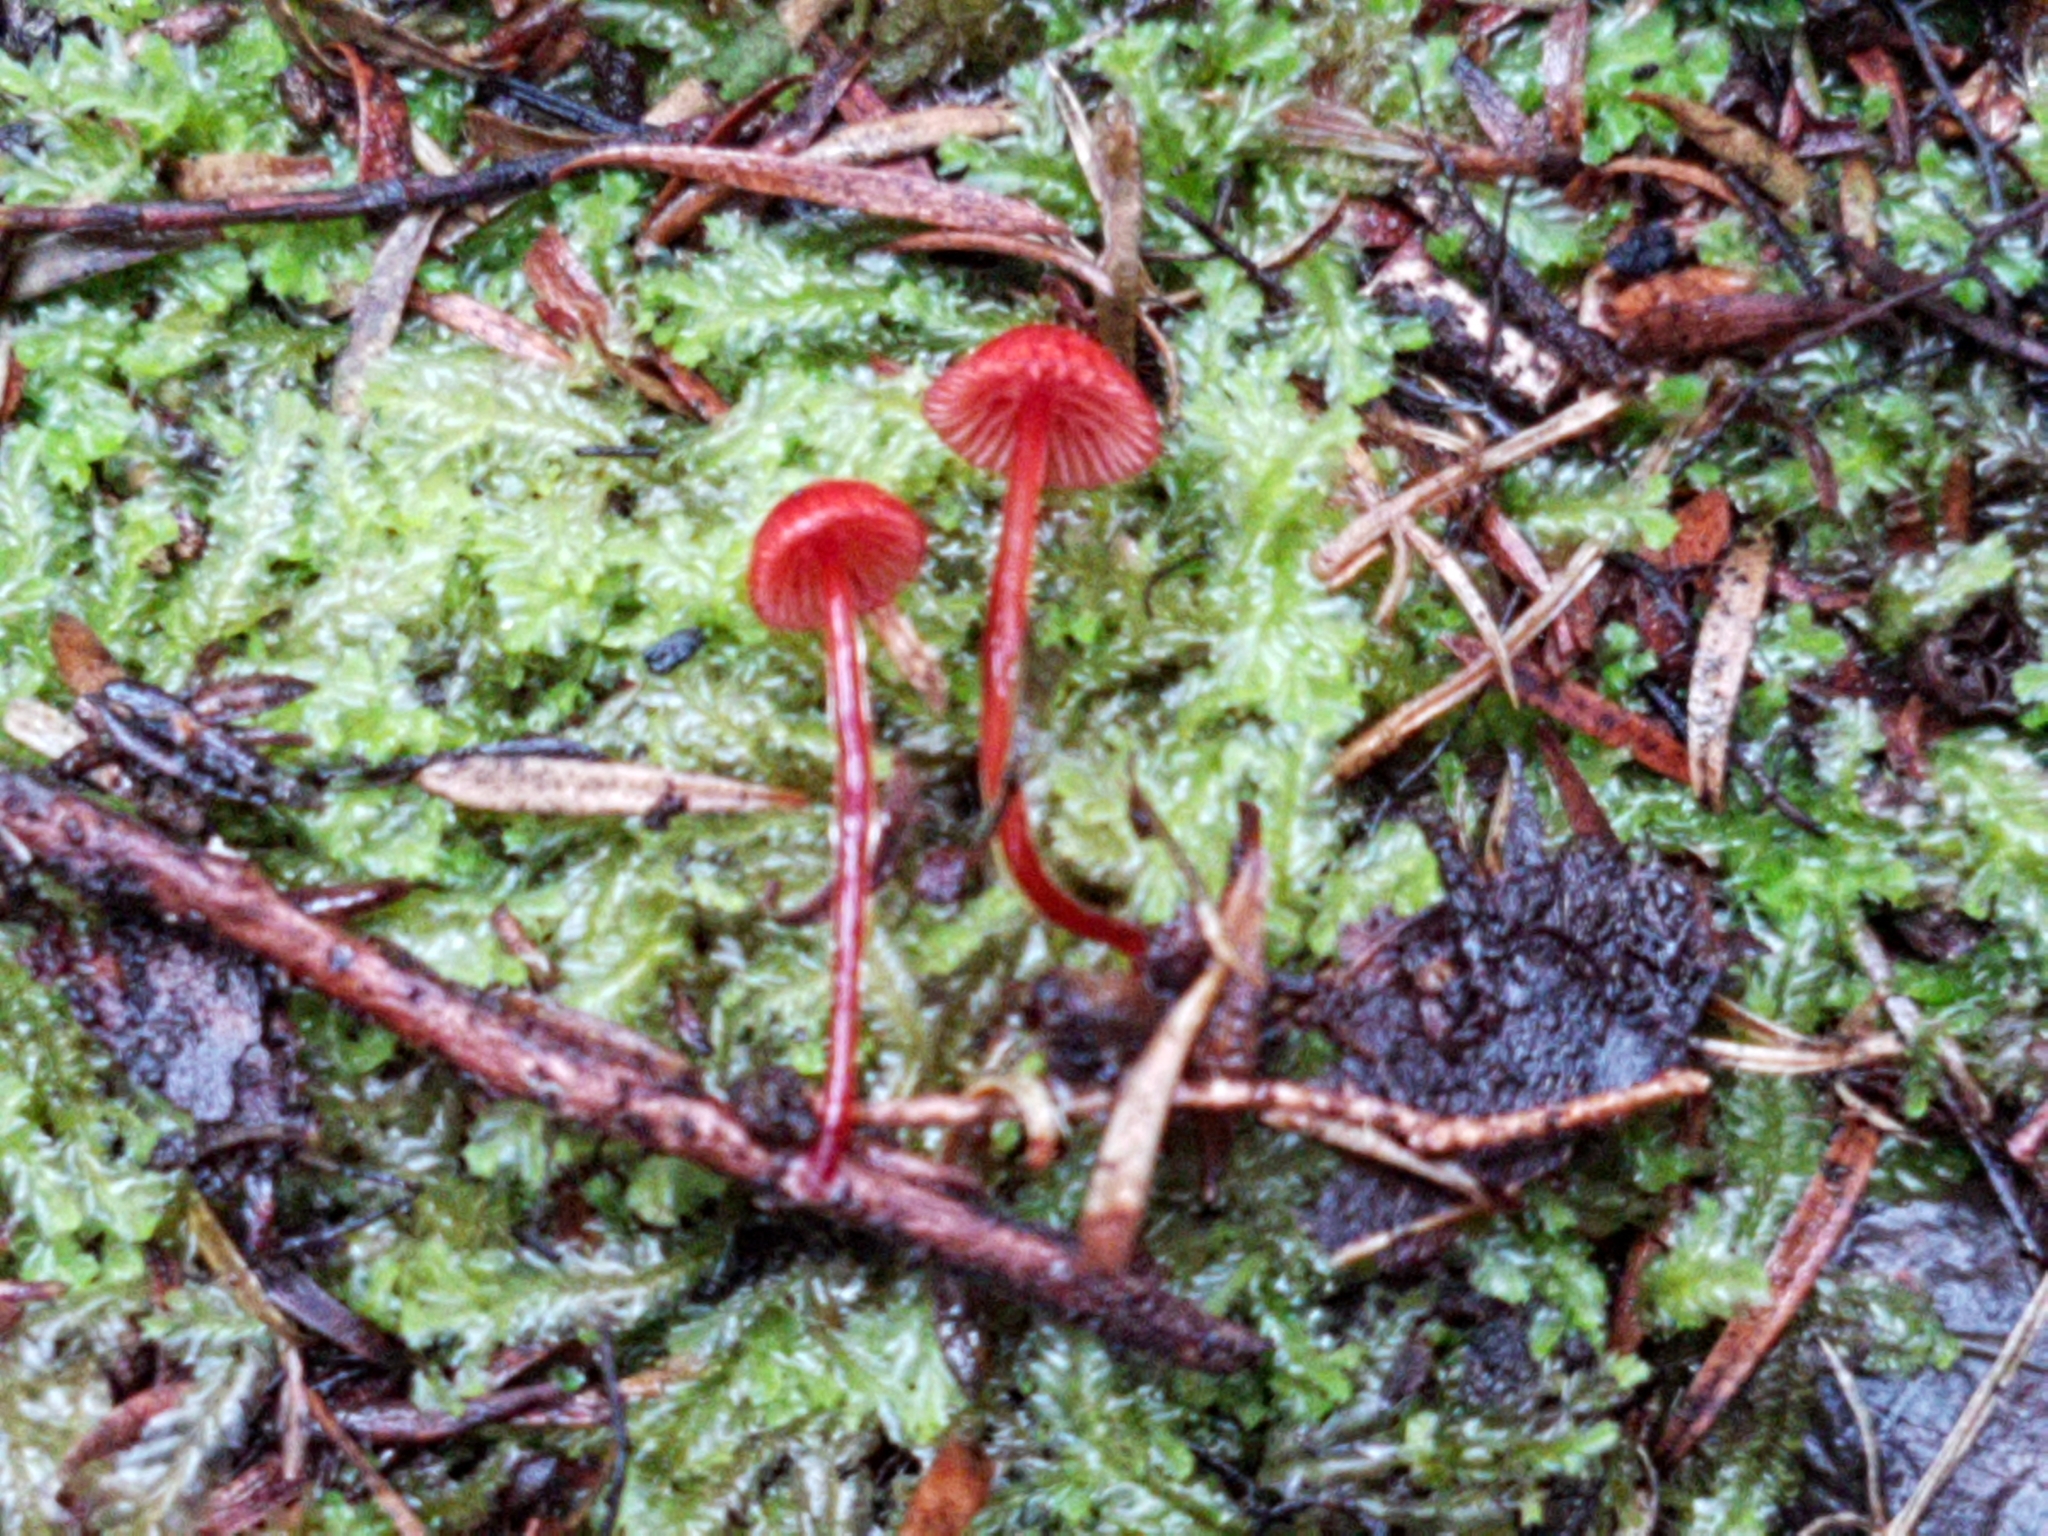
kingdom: Fungi
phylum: Basidiomycota
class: Agaricomycetes
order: Agaricales
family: Mycenaceae
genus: Cruentomycena
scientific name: Cruentomycena viscidocruenta
